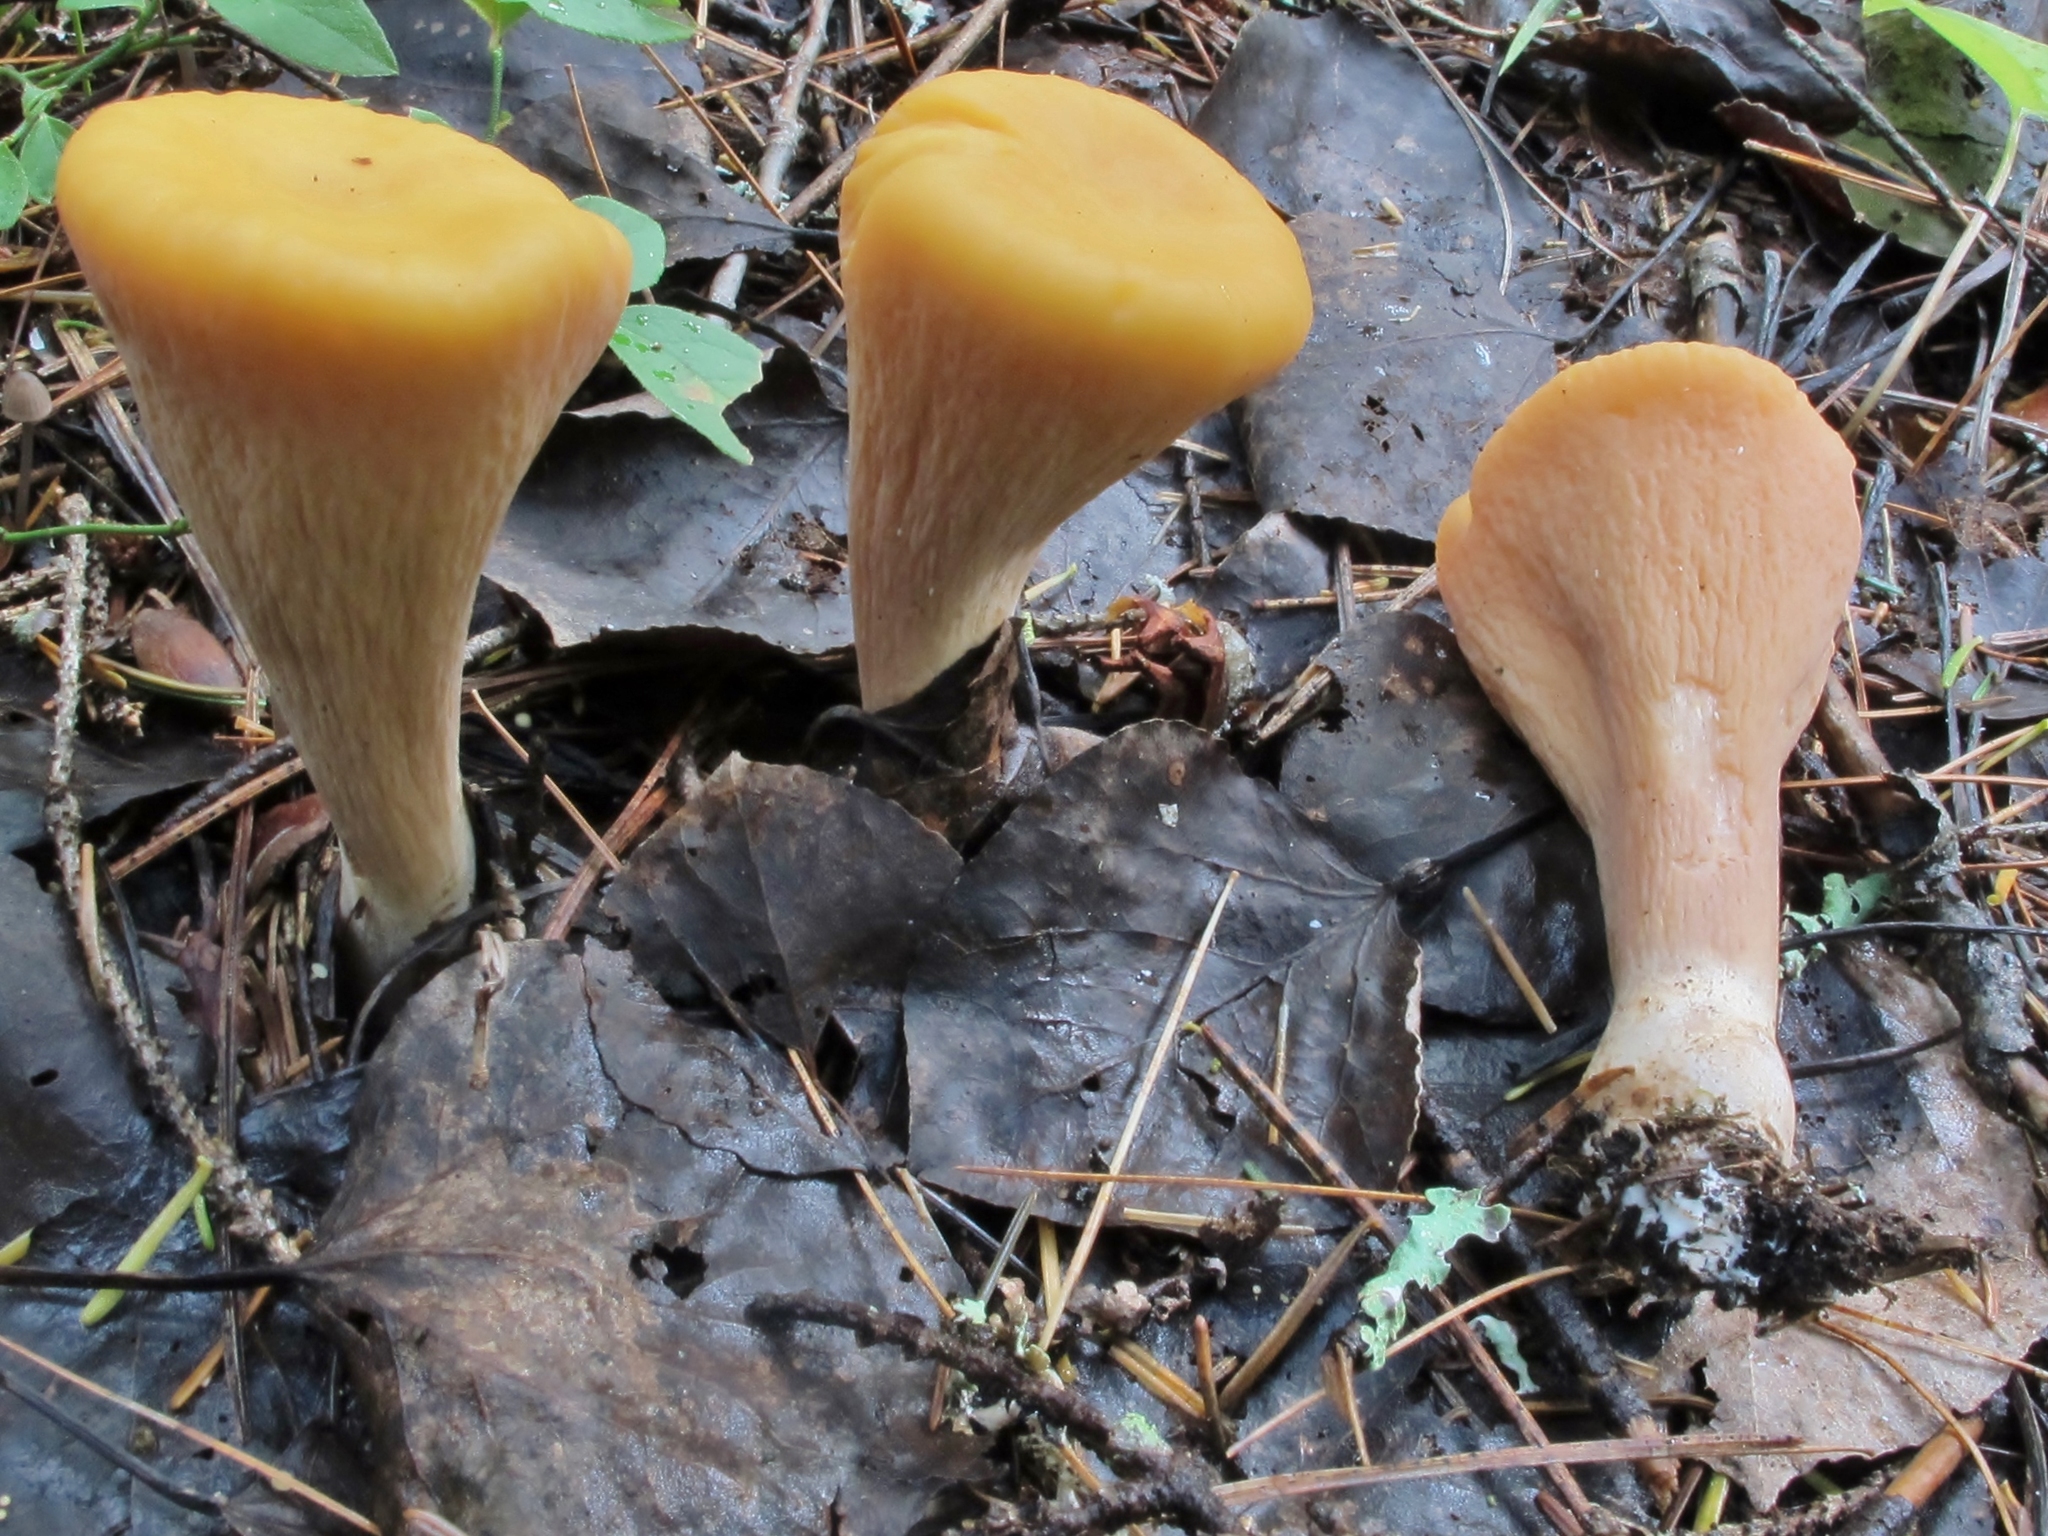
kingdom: Fungi
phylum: Basidiomycota
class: Agaricomycetes
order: Gomphales
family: Clavariadelphaceae
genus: Clavariadelphus
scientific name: Clavariadelphus truncatus
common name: Truncated club
